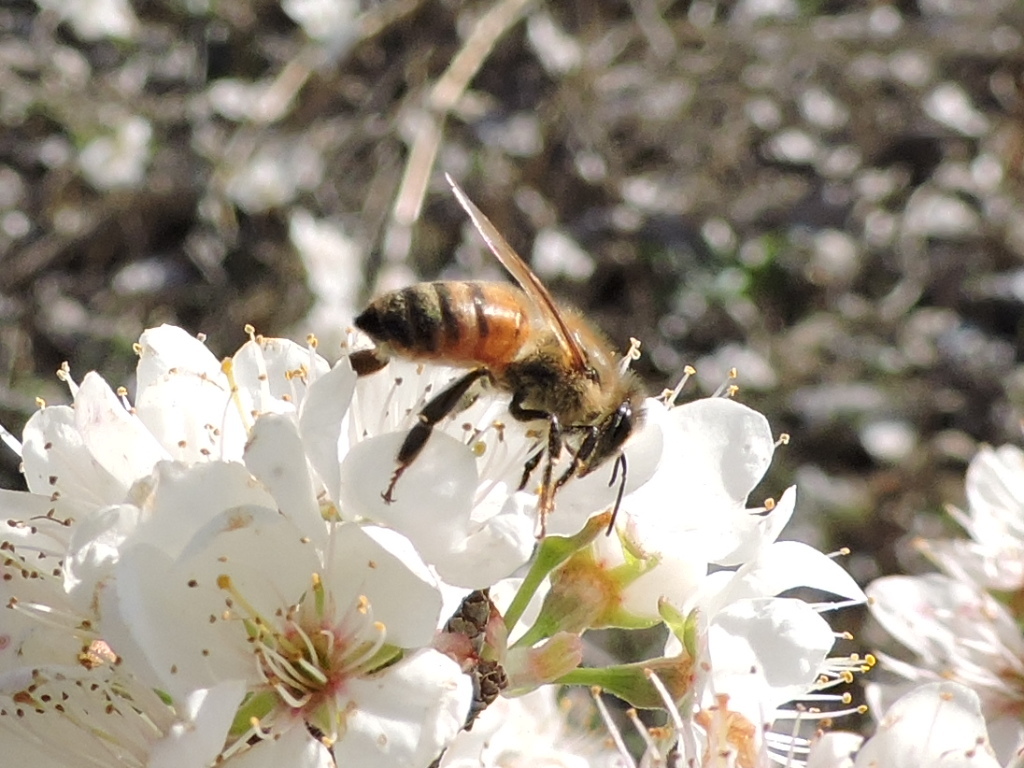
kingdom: Animalia
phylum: Arthropoda
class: Insecta
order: Hymenoptera
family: Apidae
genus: Apis
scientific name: Apis mellifera
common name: Honey bee
